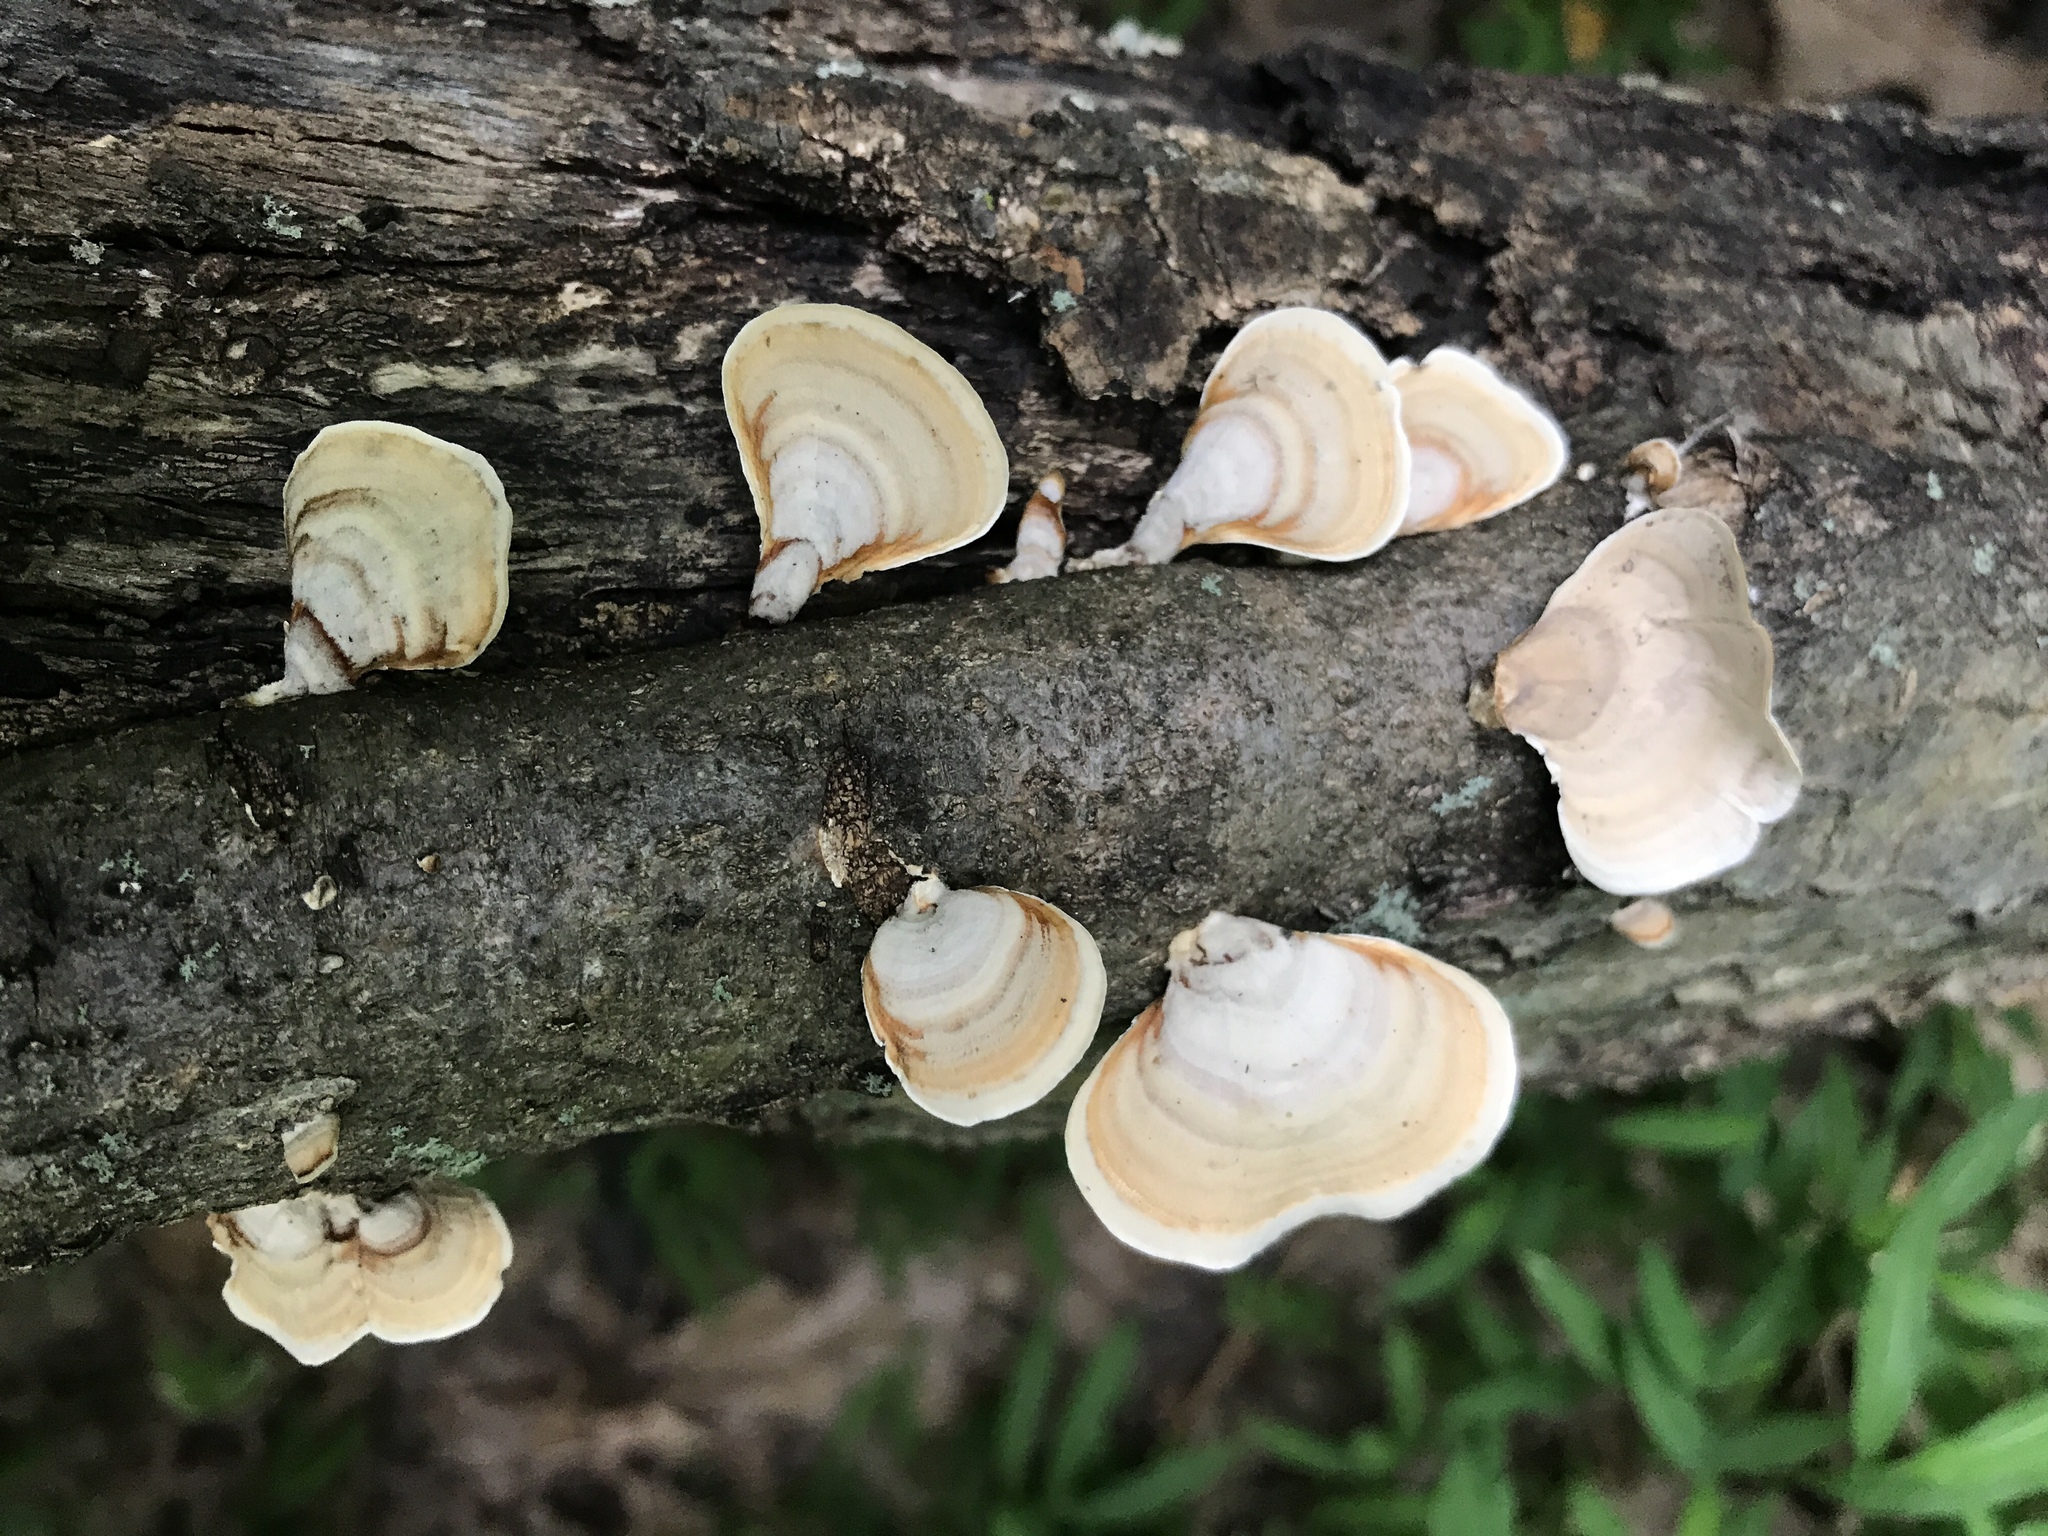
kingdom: Fungi
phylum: Basidiomycota
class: Agaricomycetes
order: Russulales
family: Stereaceae
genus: Stereum
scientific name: Stereum ostrea
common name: False turkeytail
